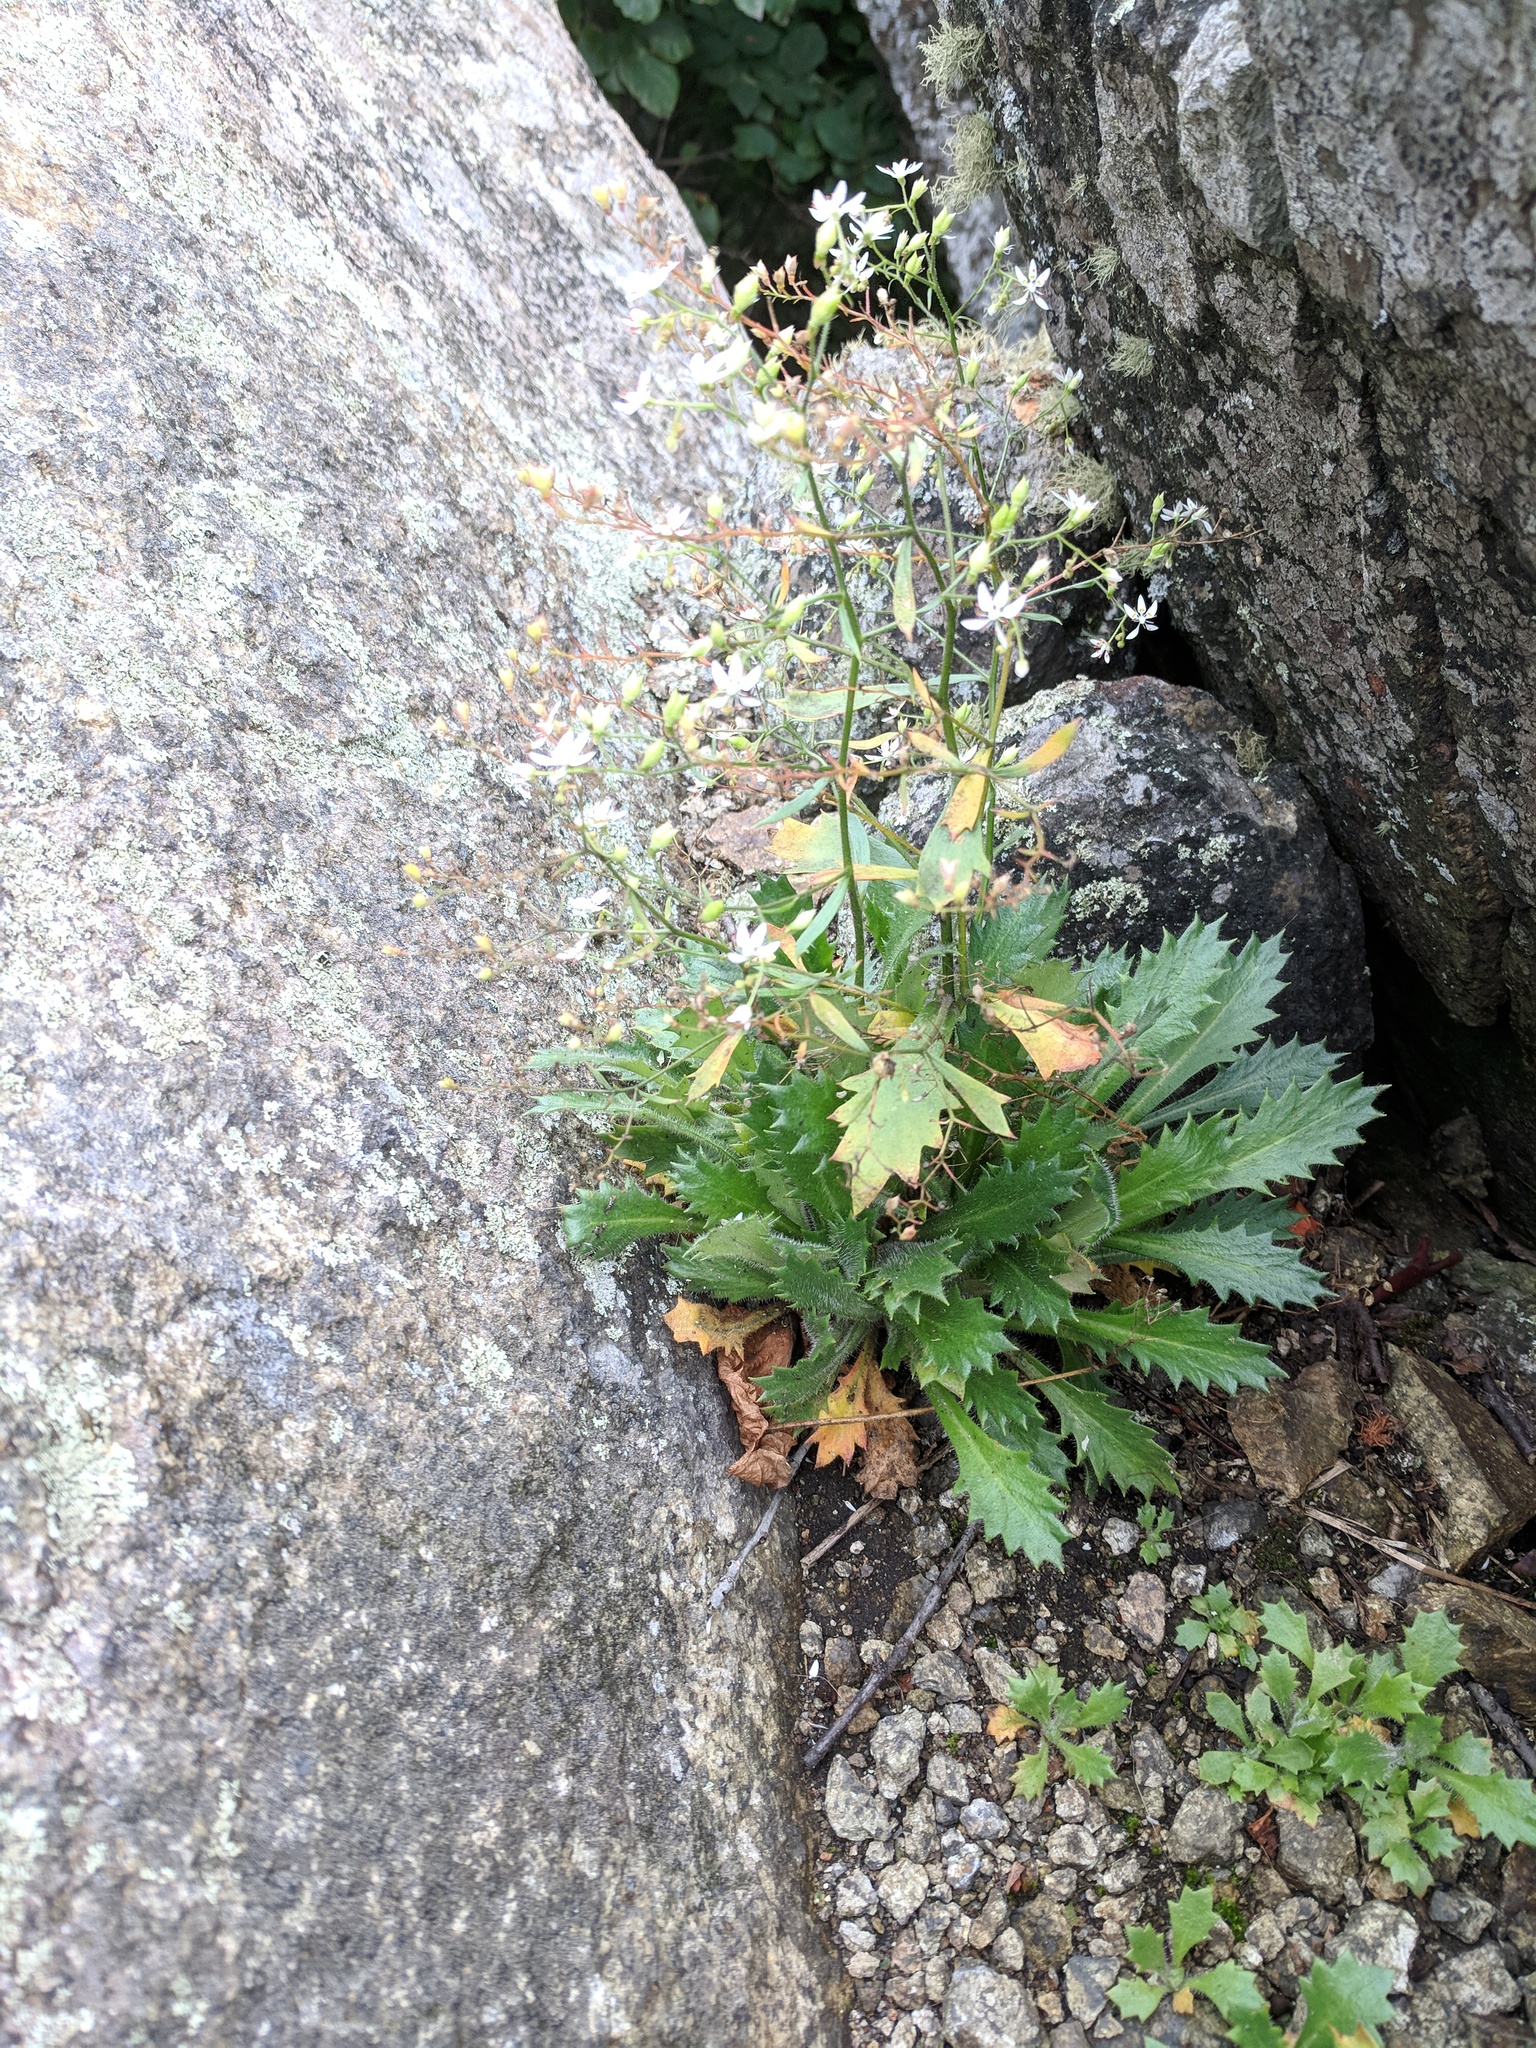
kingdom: Plantae
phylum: Tracheophyta
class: Magnoliopsida
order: Saxifragales
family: Saxifragaceae
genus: Micranthes
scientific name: Micranthes petiolaris
